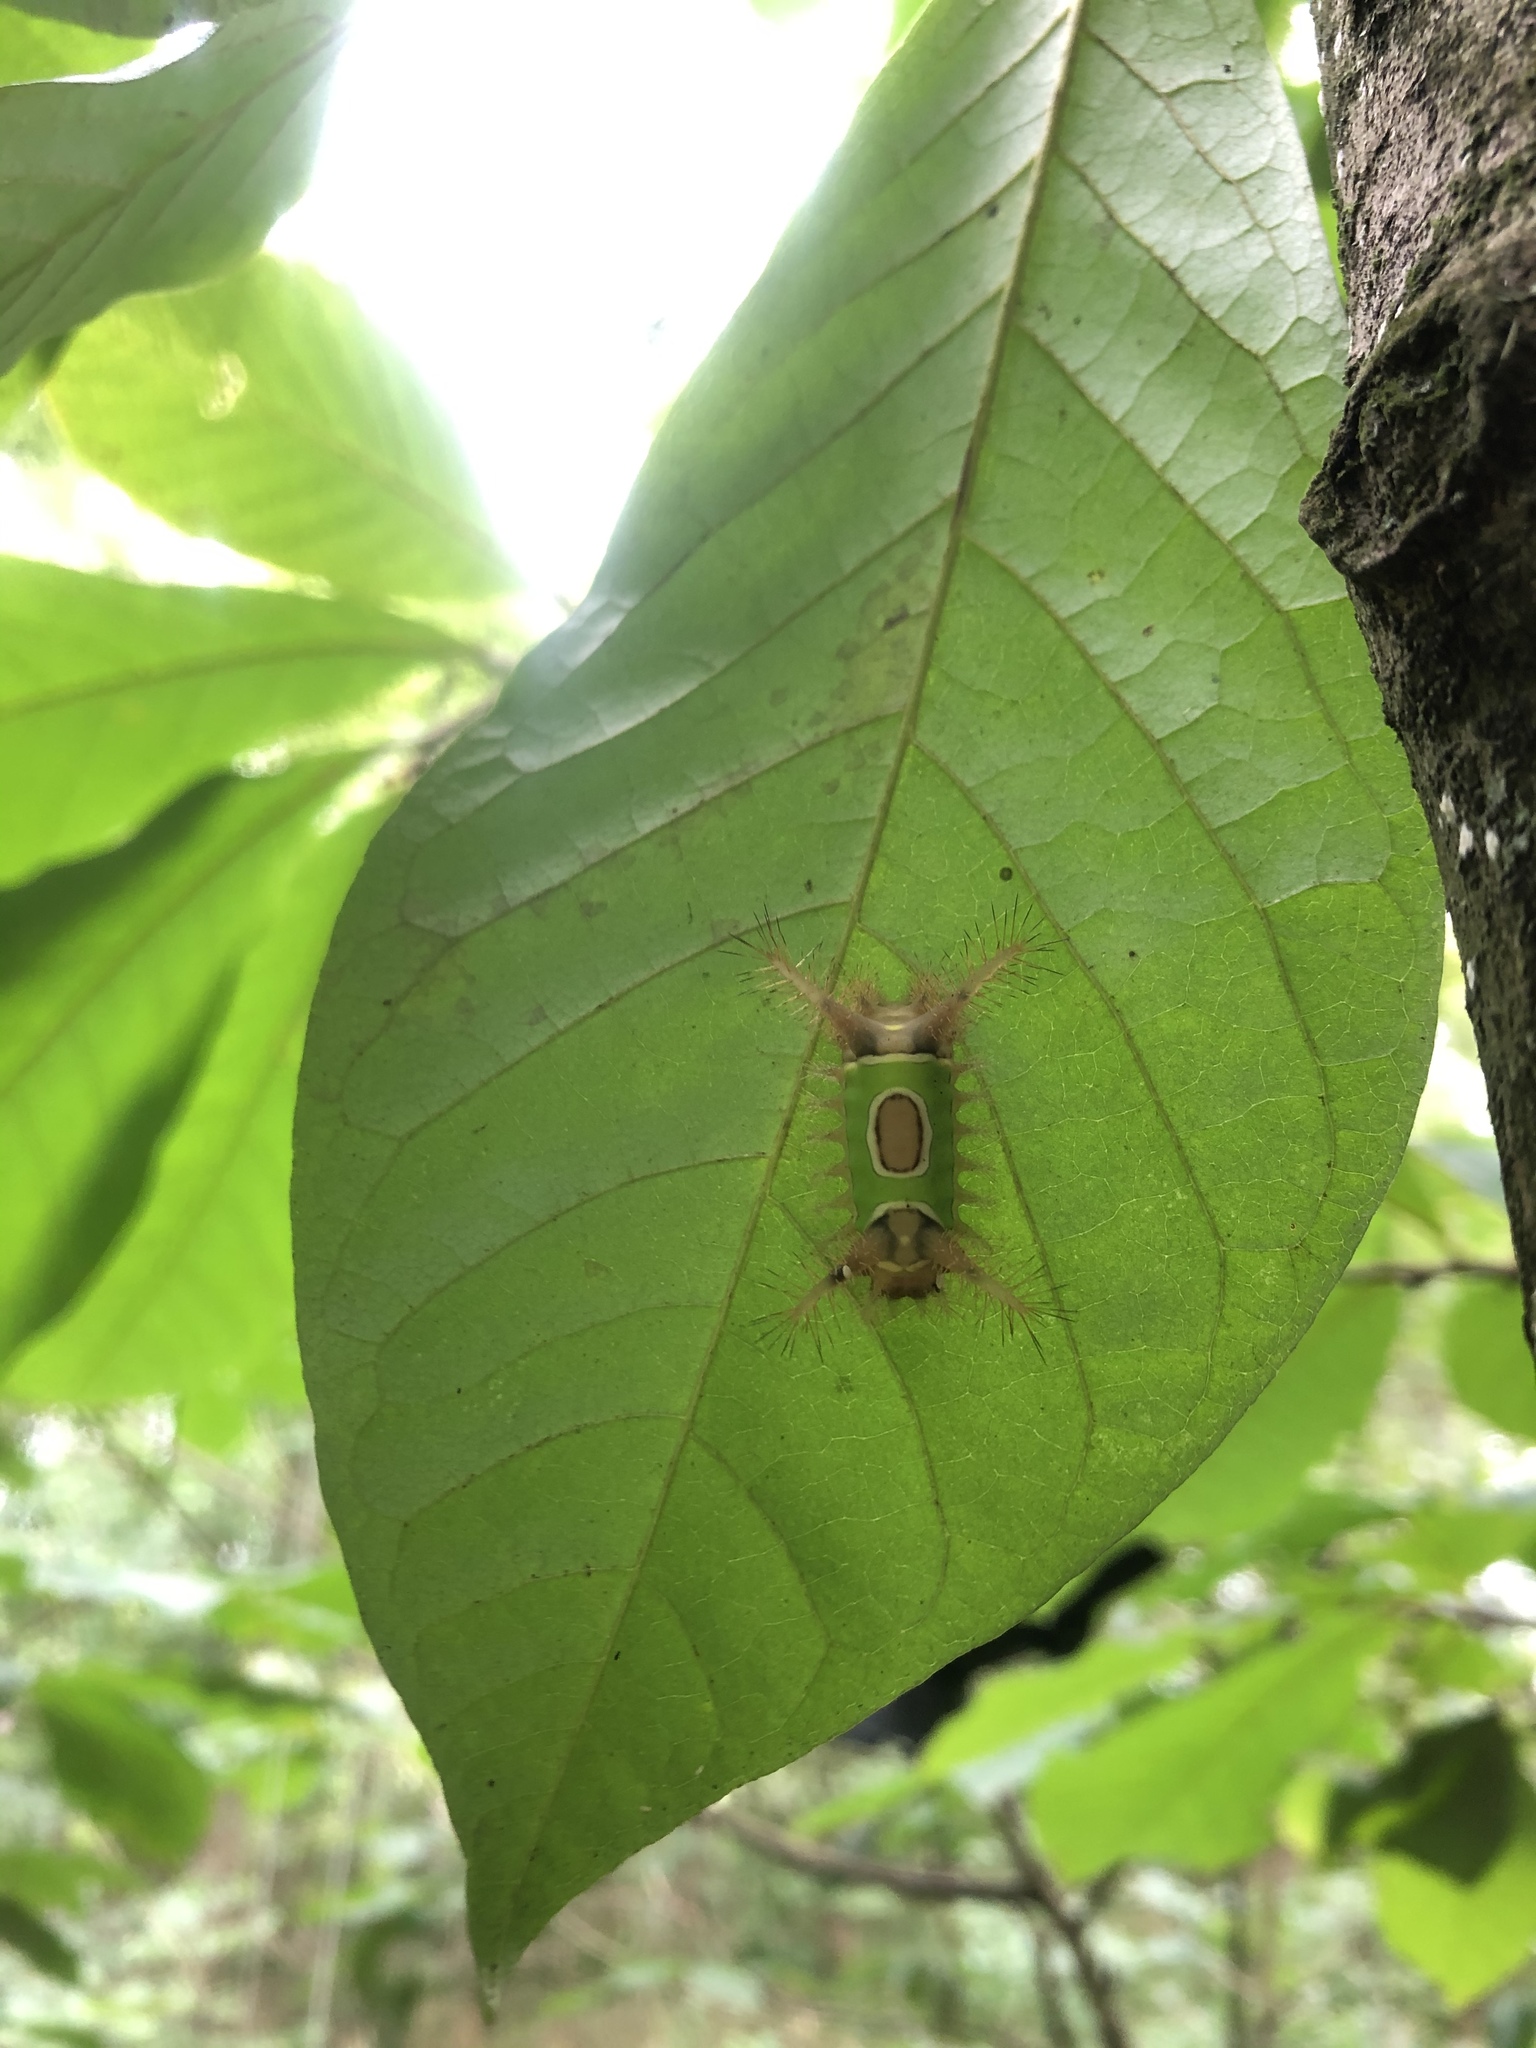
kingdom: Animalia
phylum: Arthropoda
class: Insecta
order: Lepidoptera
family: Limacodidae
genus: Acharia
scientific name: Acharia stimulea
